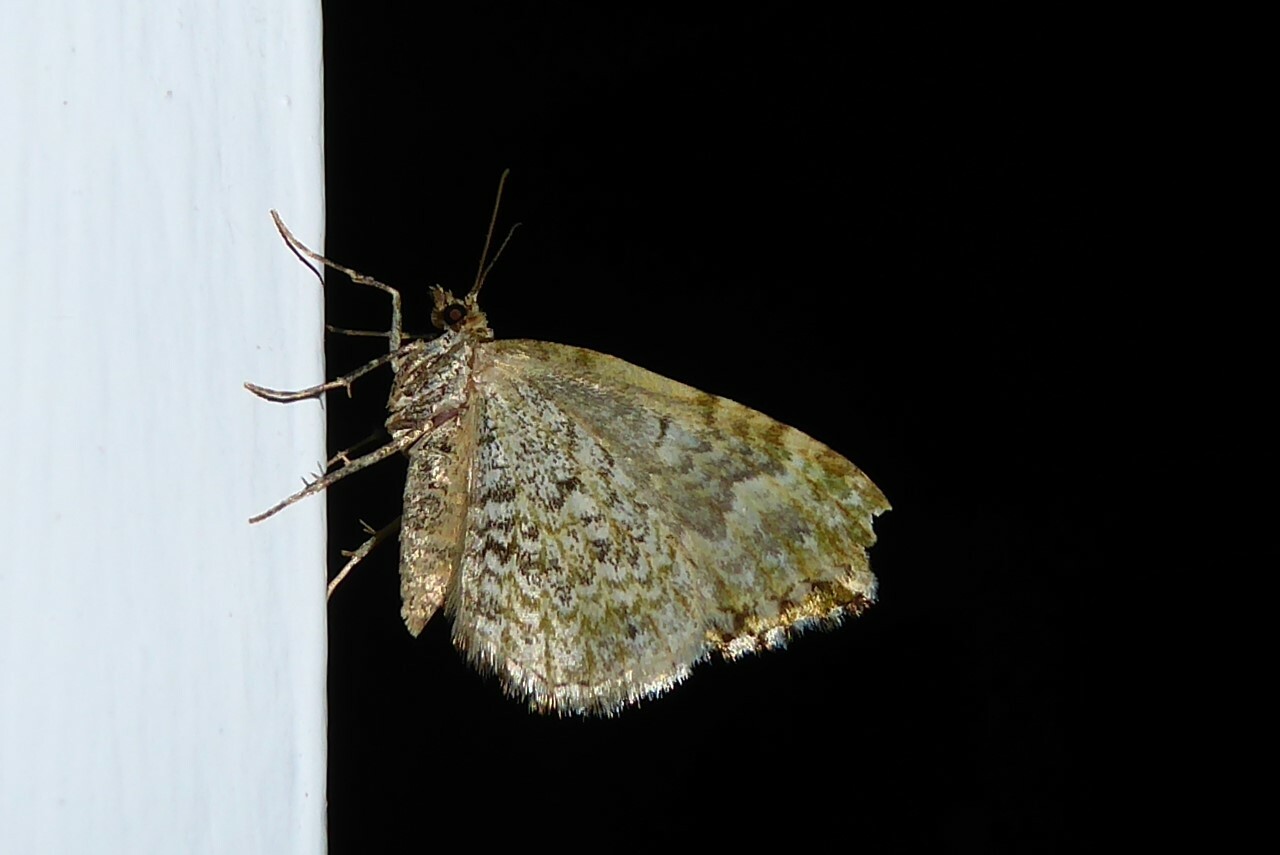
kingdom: Animalia
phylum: Arthropoda
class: Insecta
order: Lepidoptera
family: Geometridae
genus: Asaphodes
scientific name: Asaphodes beata
